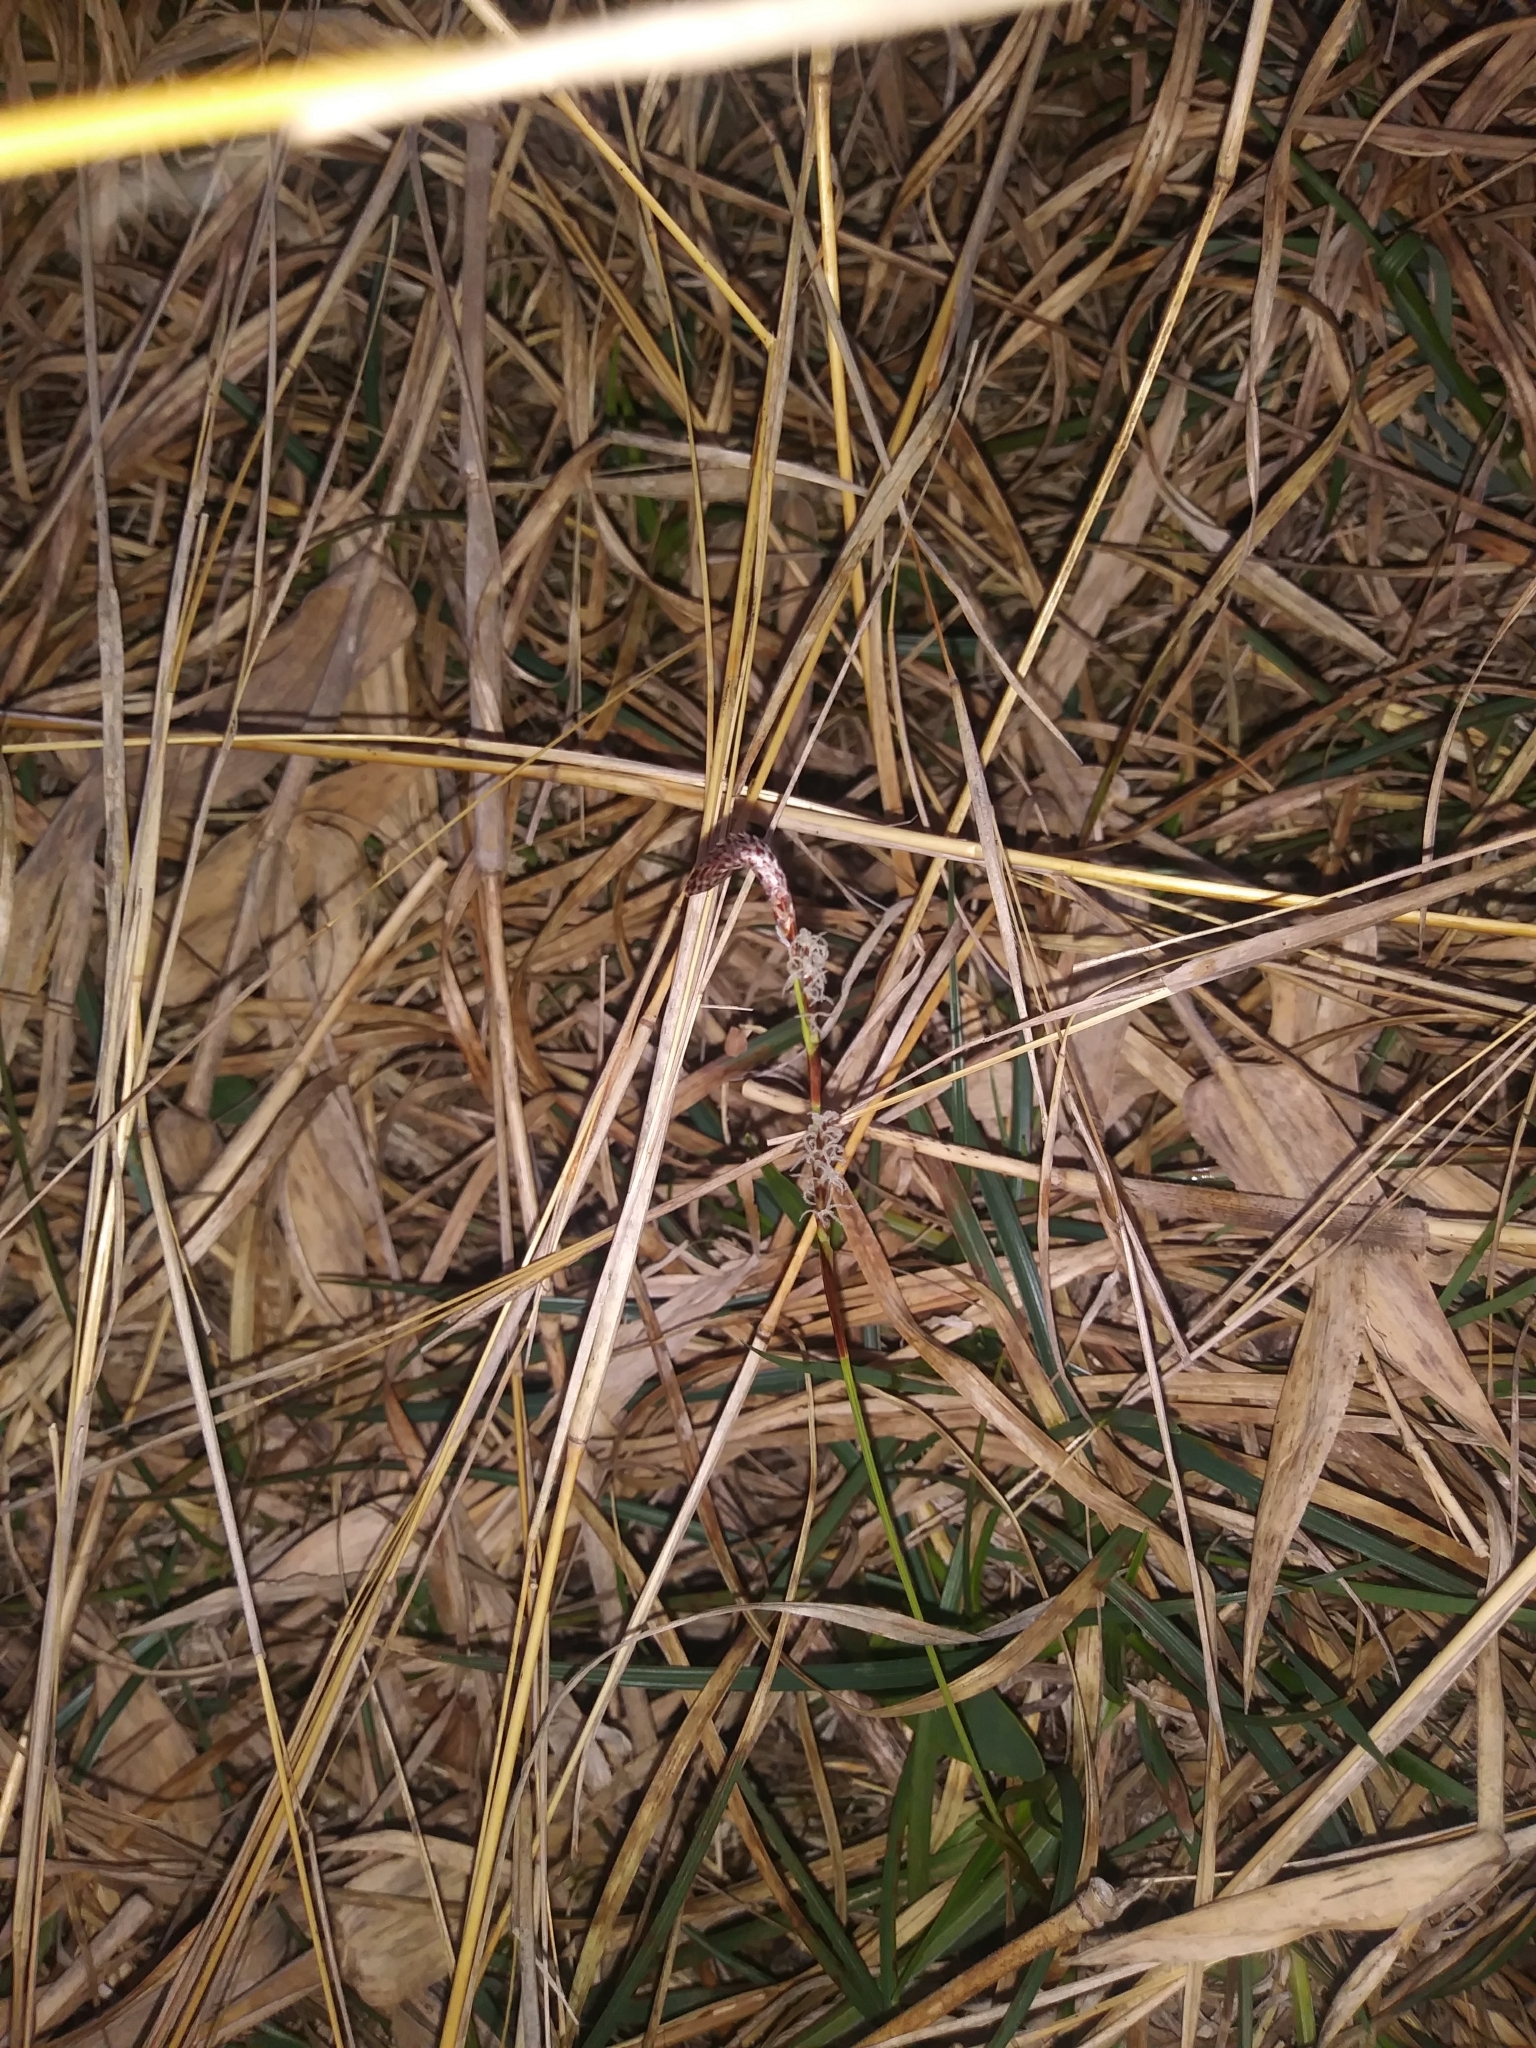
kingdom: Plantae
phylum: Tracheophyta
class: Liliopsida
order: Poales
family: Cyperaceae
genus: Carex
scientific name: Carex richardsonii
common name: Prairie hummock sedge
